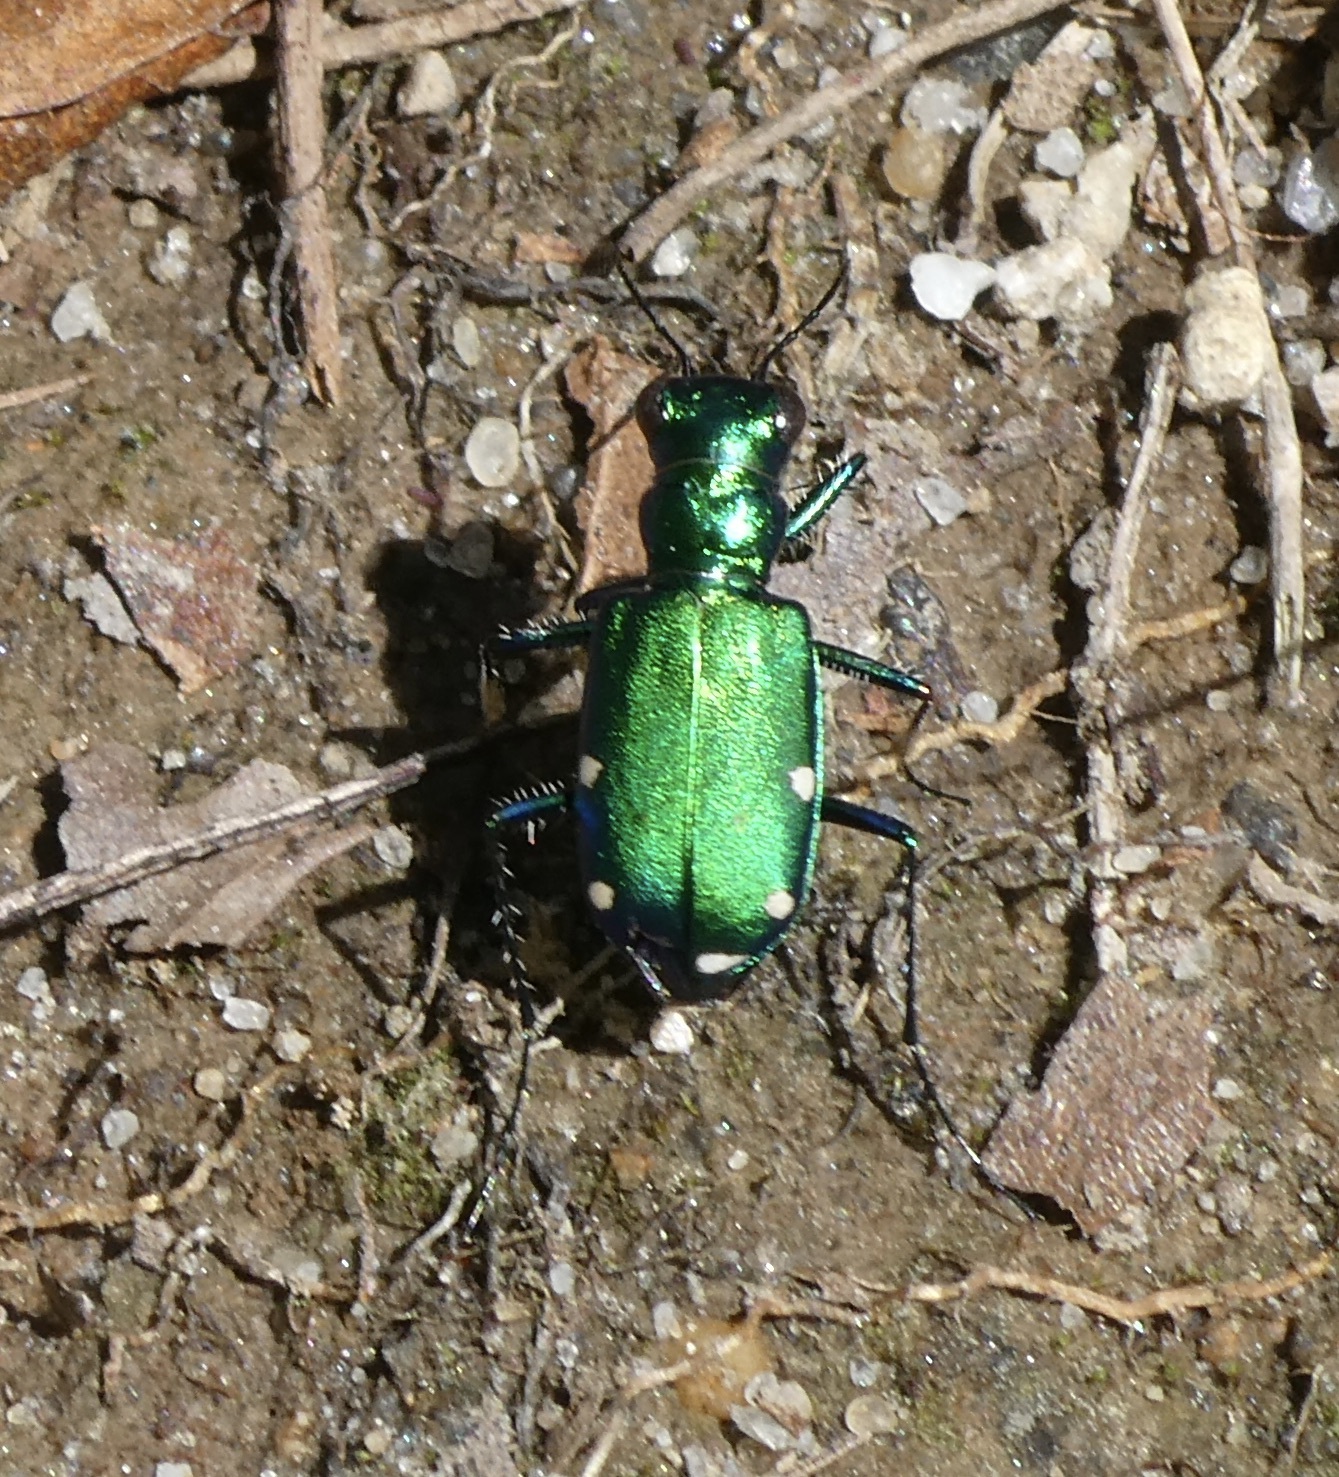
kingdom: Animalia
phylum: Arthropoda
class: Insecta
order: Coleoptera
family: Carabidae
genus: Cicindela
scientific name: Cicindela sexguttata
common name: Six-spotted tiger beetle
